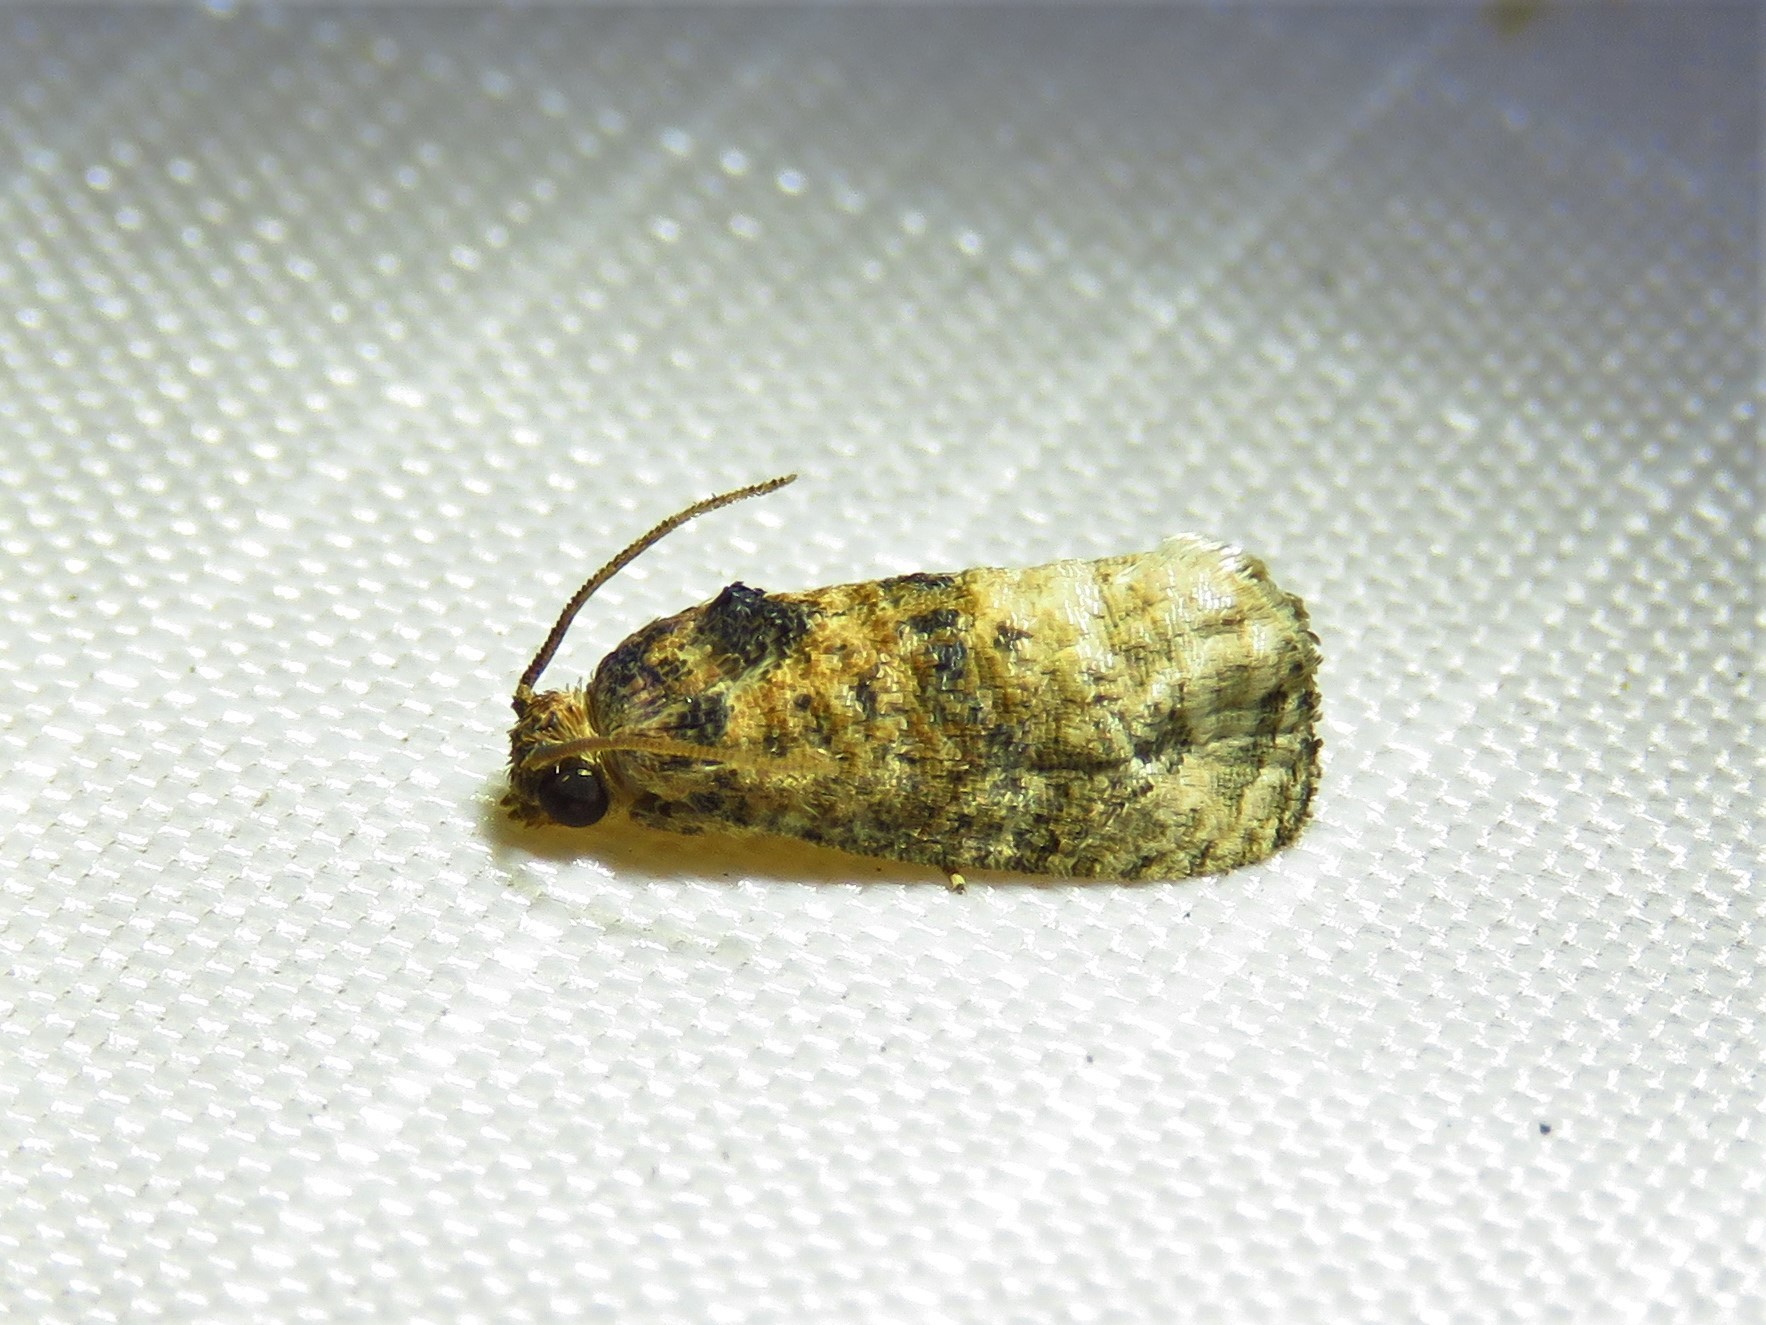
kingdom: Animalia
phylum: Arthropoda
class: Insecta
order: Lepidoptera
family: Tortricidae
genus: Ecdytolopha
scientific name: Ecdytolopha mana
